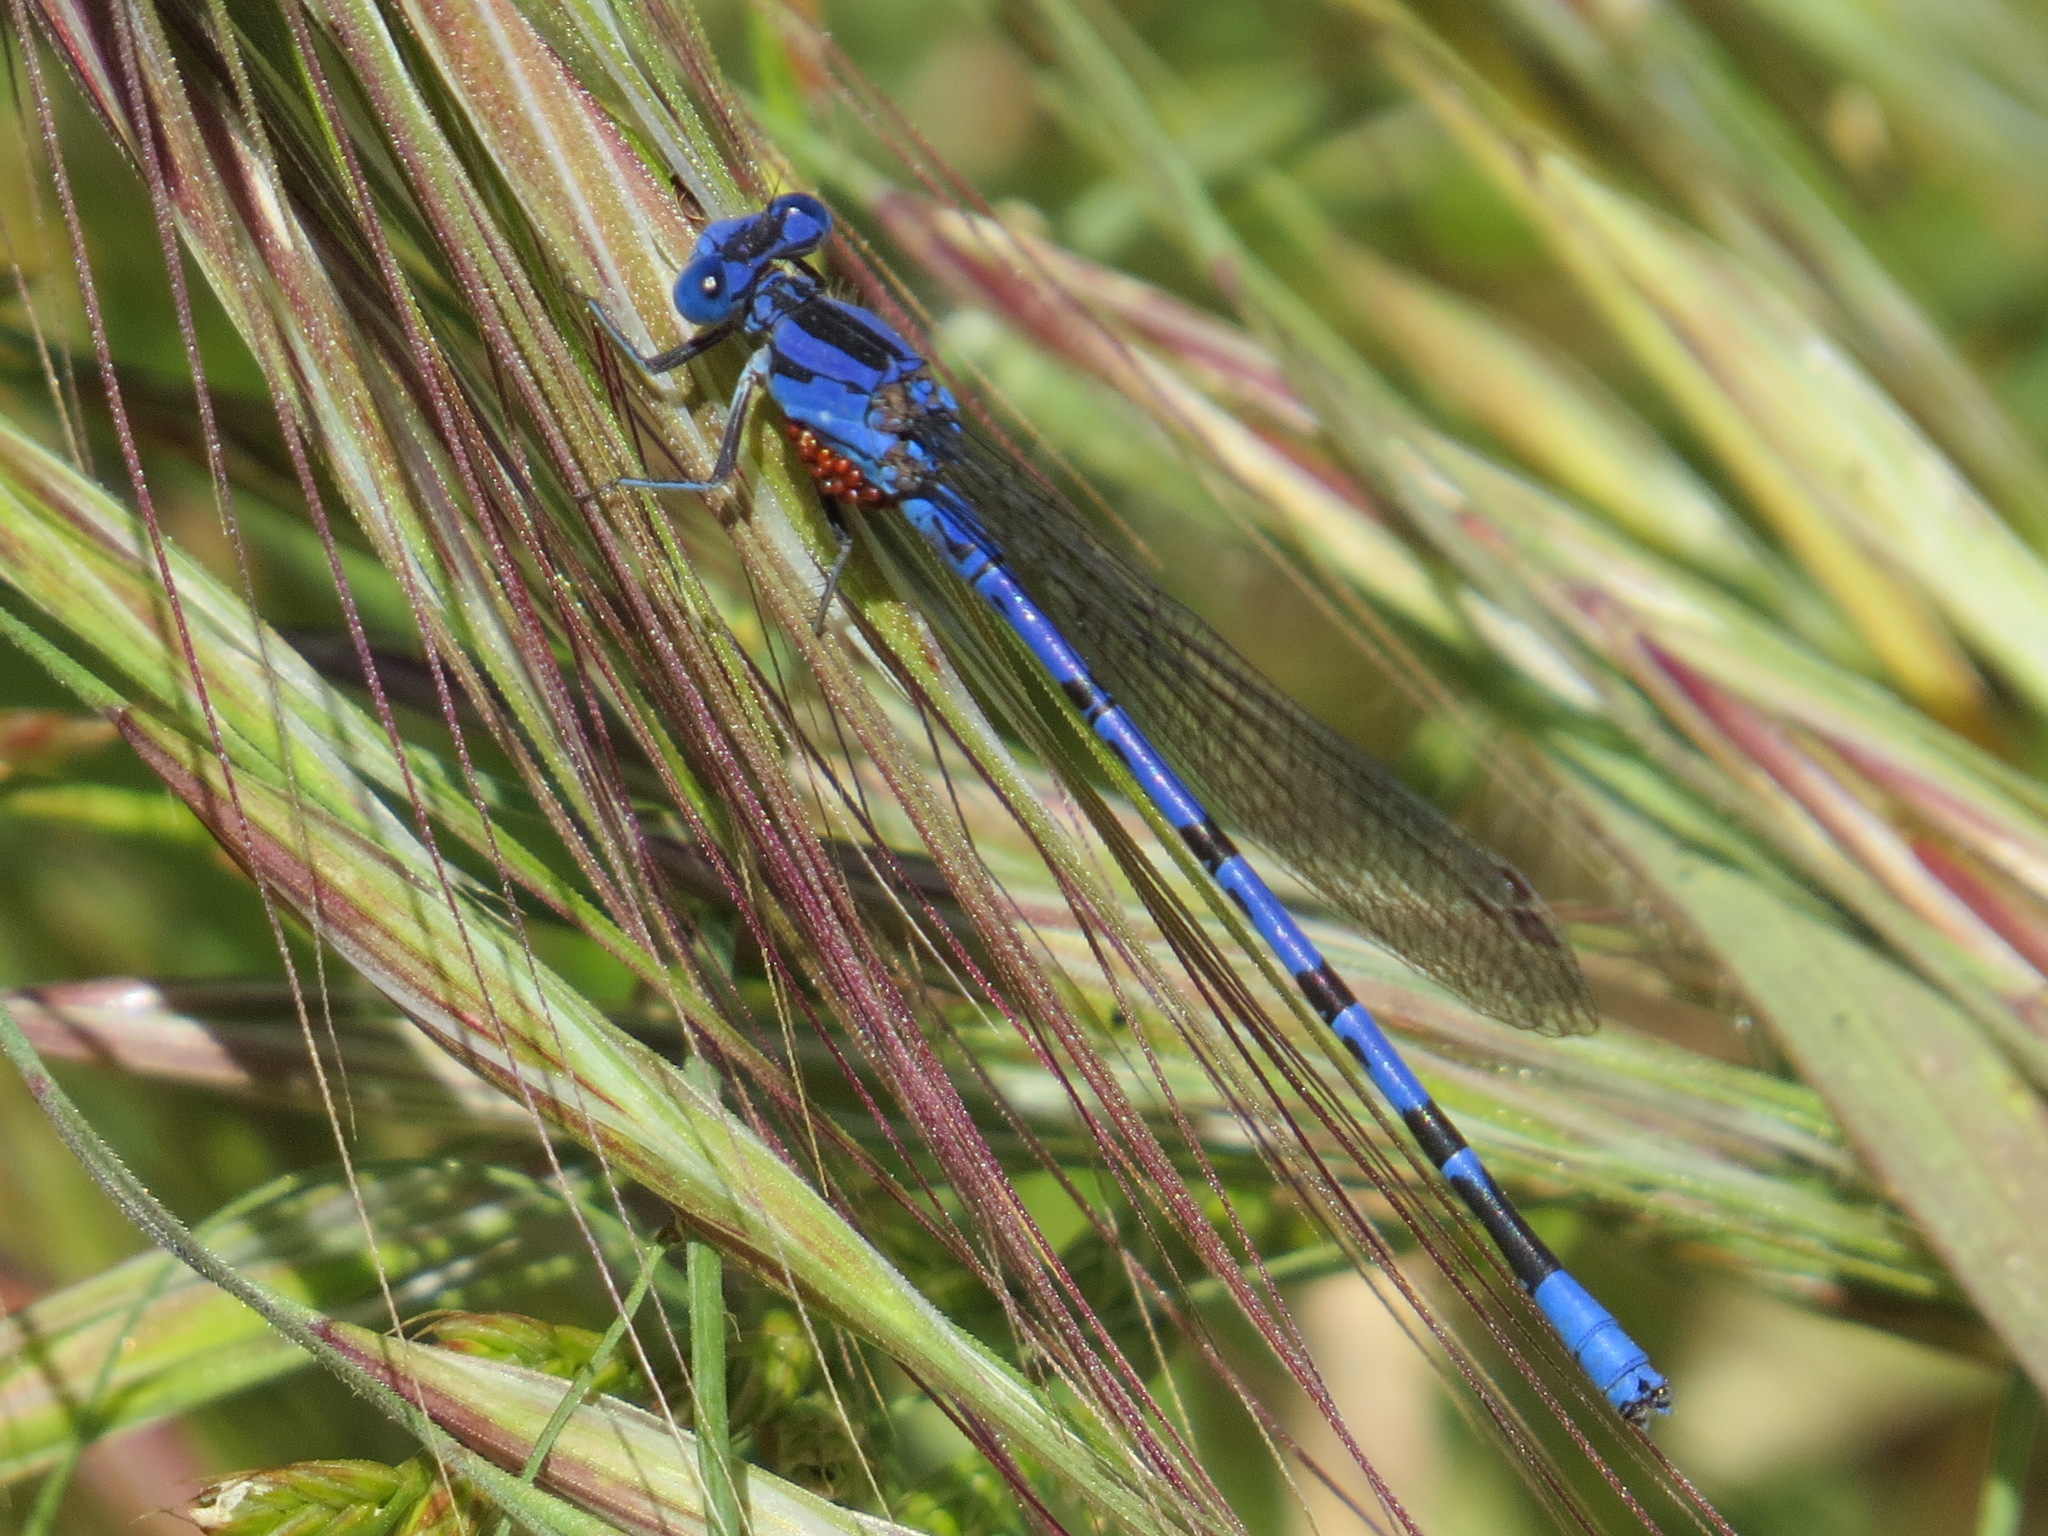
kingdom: Animalia
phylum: Arthropoda
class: Insecta
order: Odonata
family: Coenagrionidae
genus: Argia
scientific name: Argia vivida
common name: Vivid dancer
